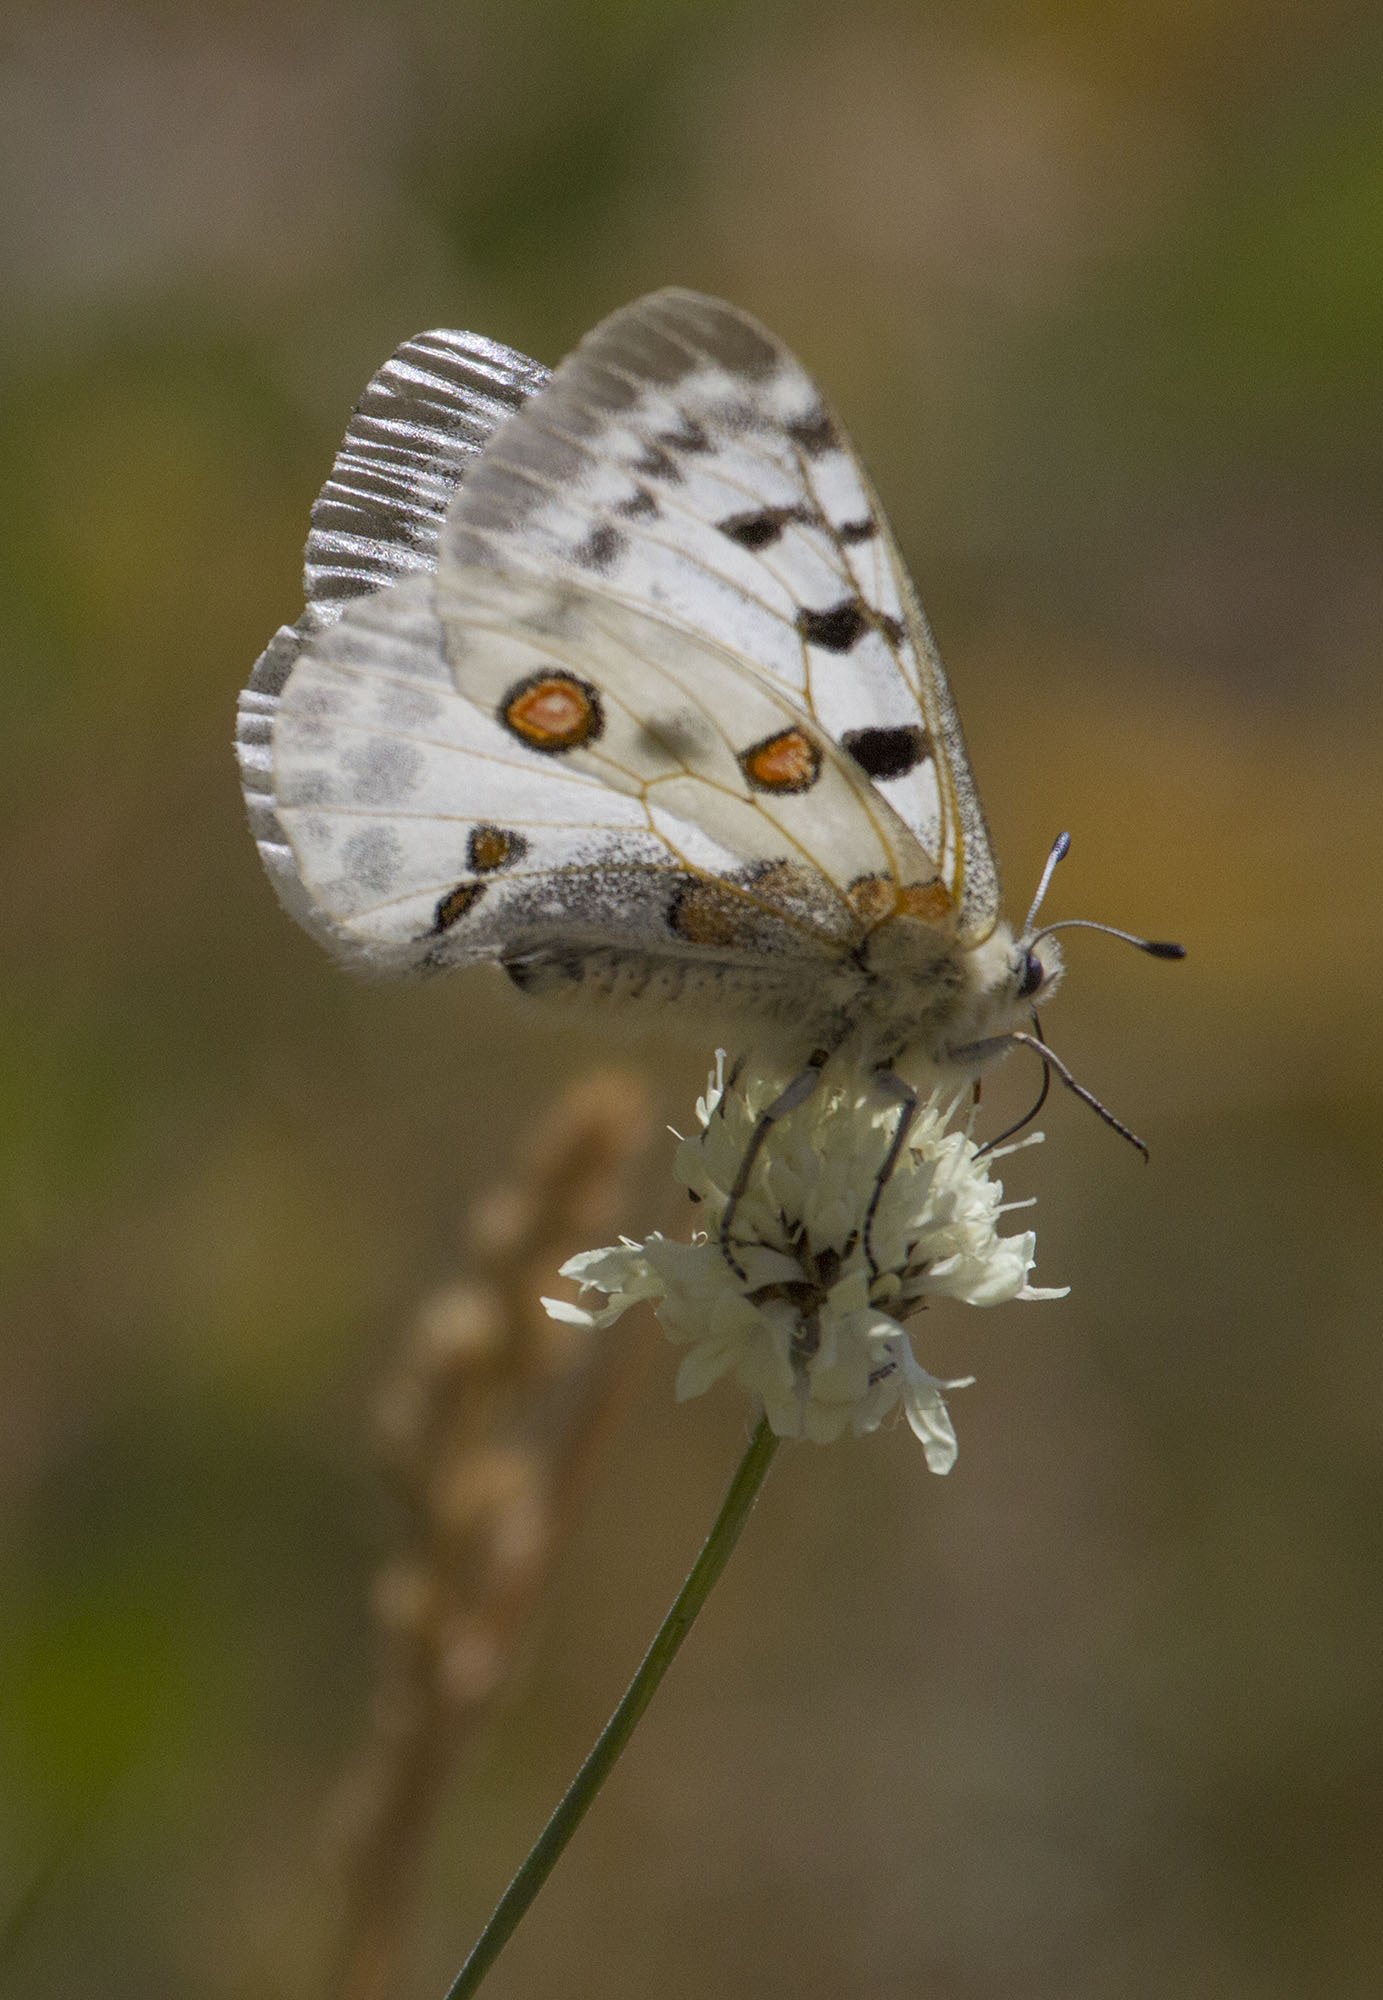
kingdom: Animalia
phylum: Arthropoda
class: Insecta
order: Lepidoptera
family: Papilionidae
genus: Parnassius
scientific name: Parnassius apollo
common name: Apollo
